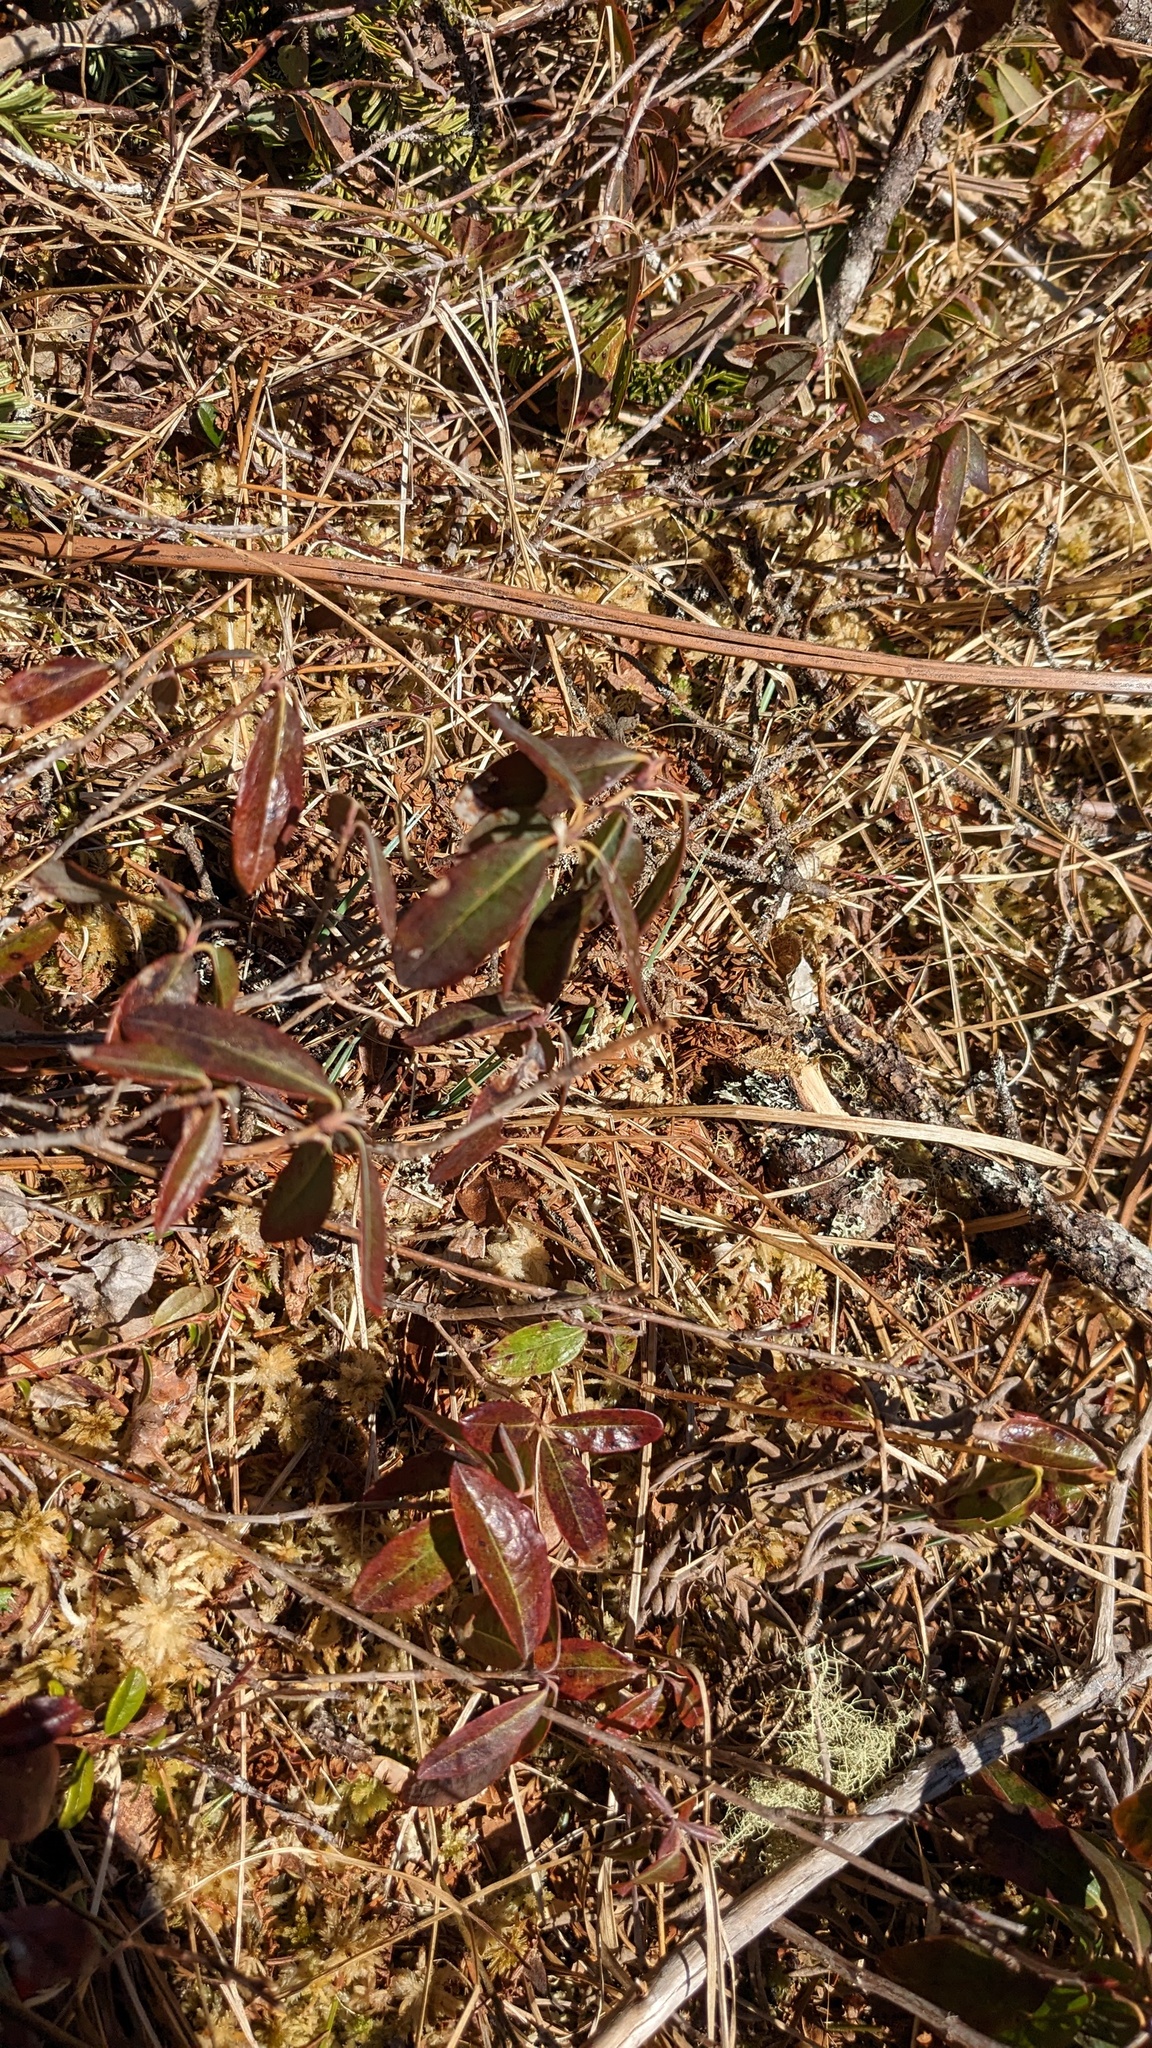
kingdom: Plantae
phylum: Tracheophyta
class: Magnoliopsida
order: Ericales
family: Ericaceae
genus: Kalmia
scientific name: Kalmia angustifolia
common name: Sheep-laurel
